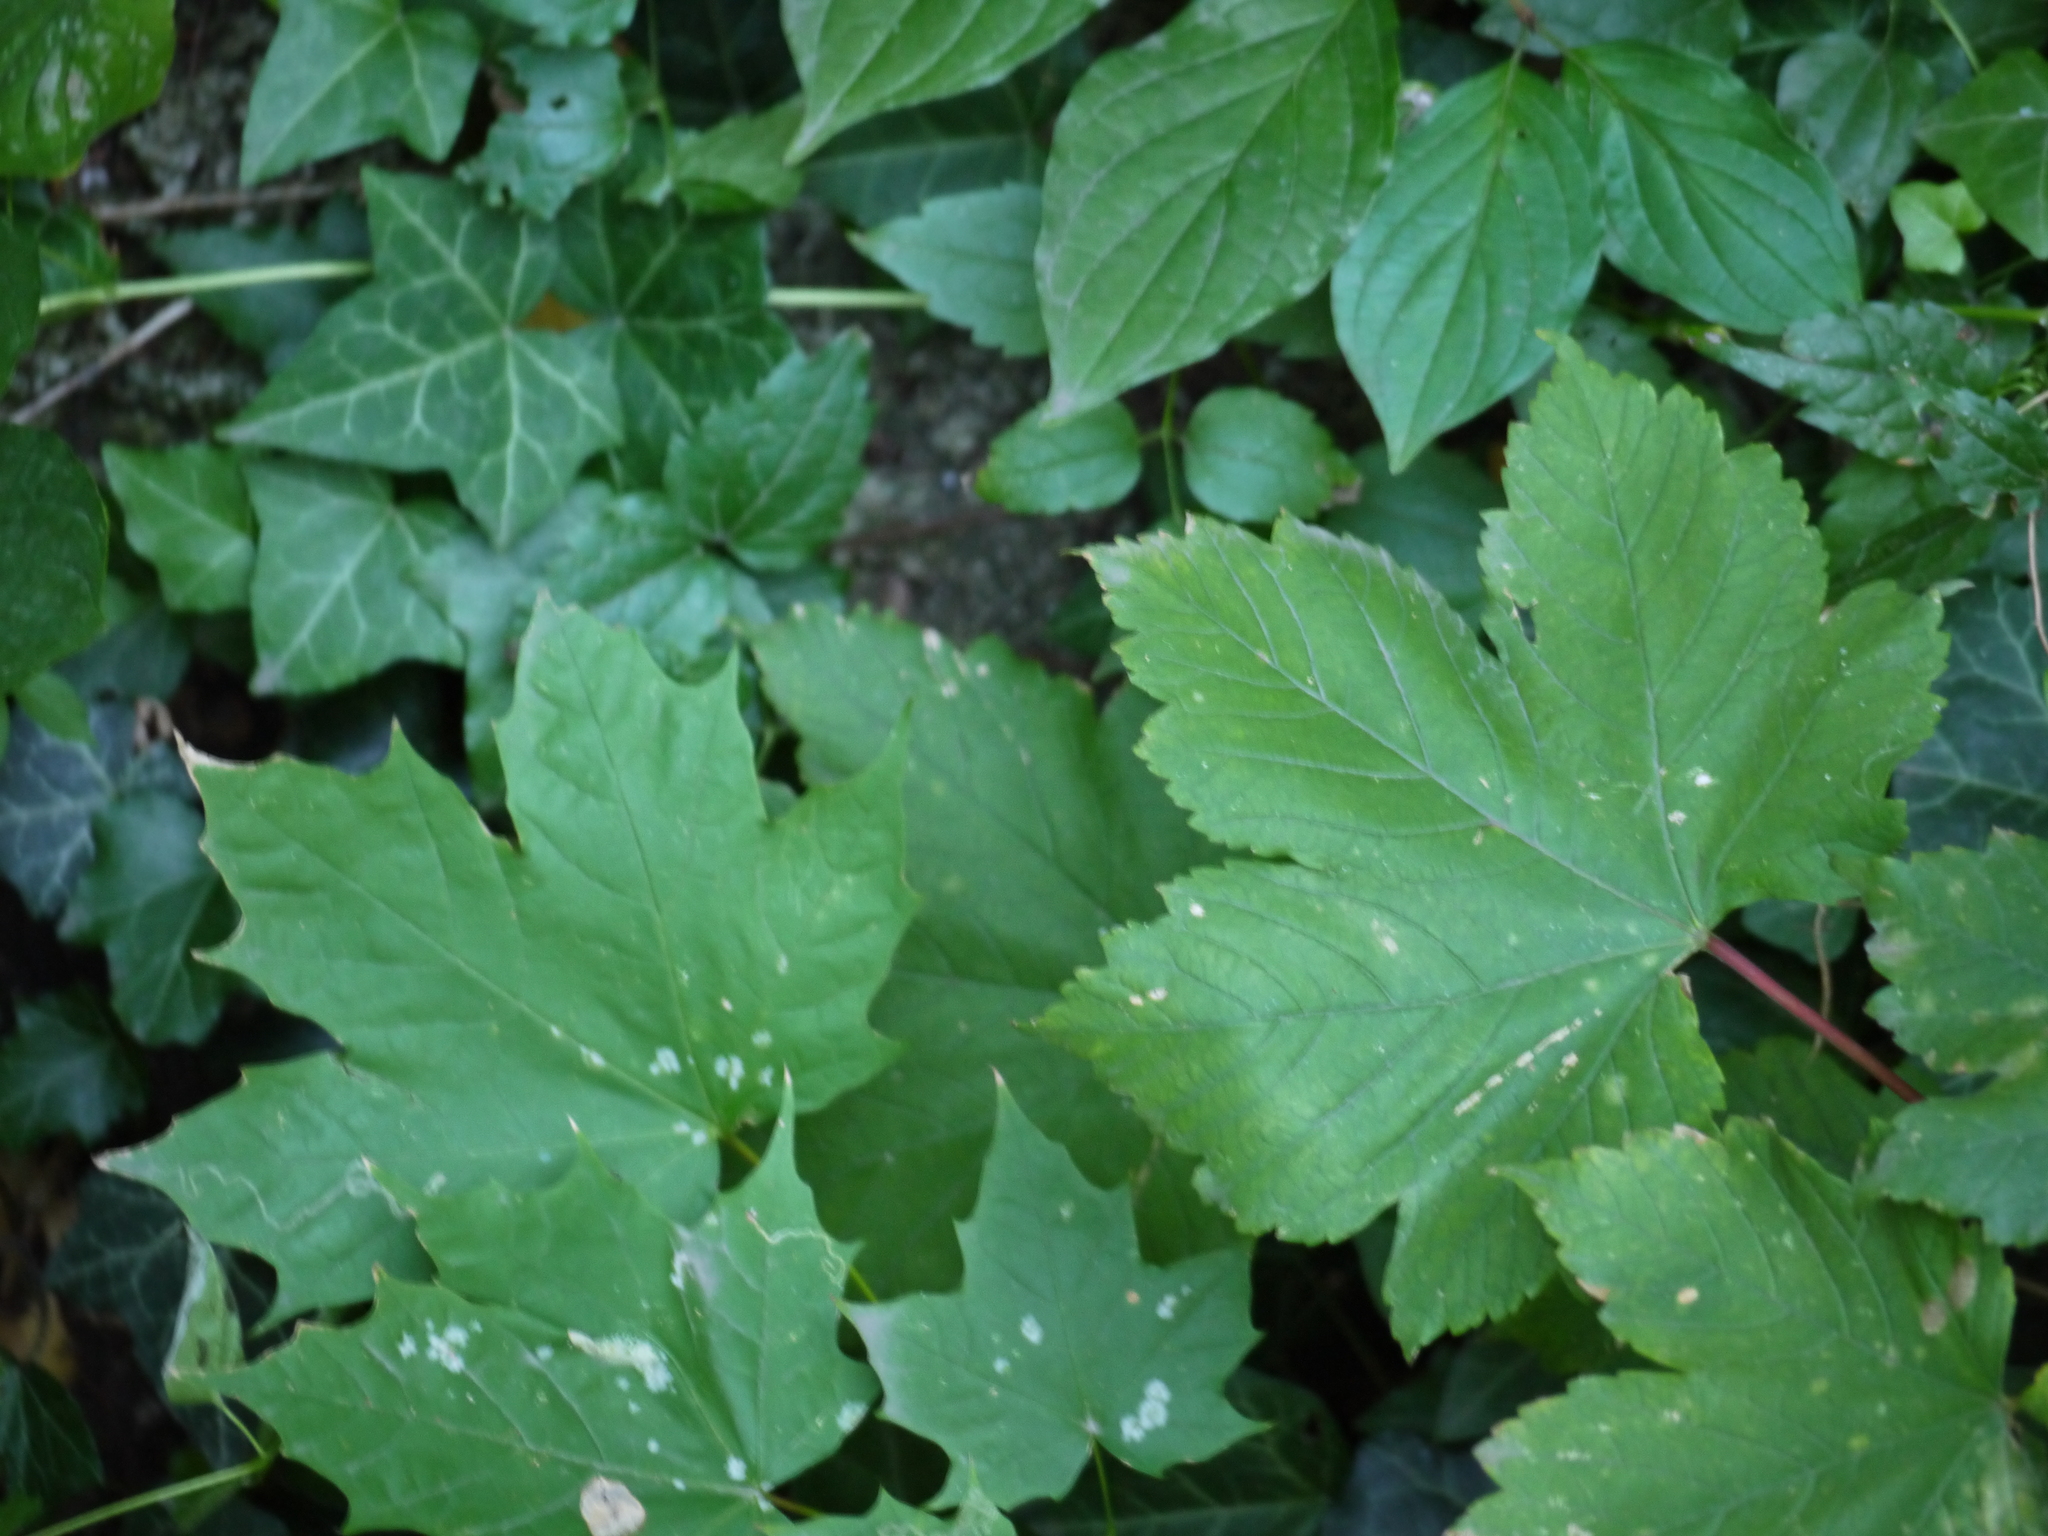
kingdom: Plantae
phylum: Tracheophyta
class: Magnoliopsida
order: Sapindales
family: Sapindaceae
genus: Acer
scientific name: Acer platanoides
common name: Norway maple
